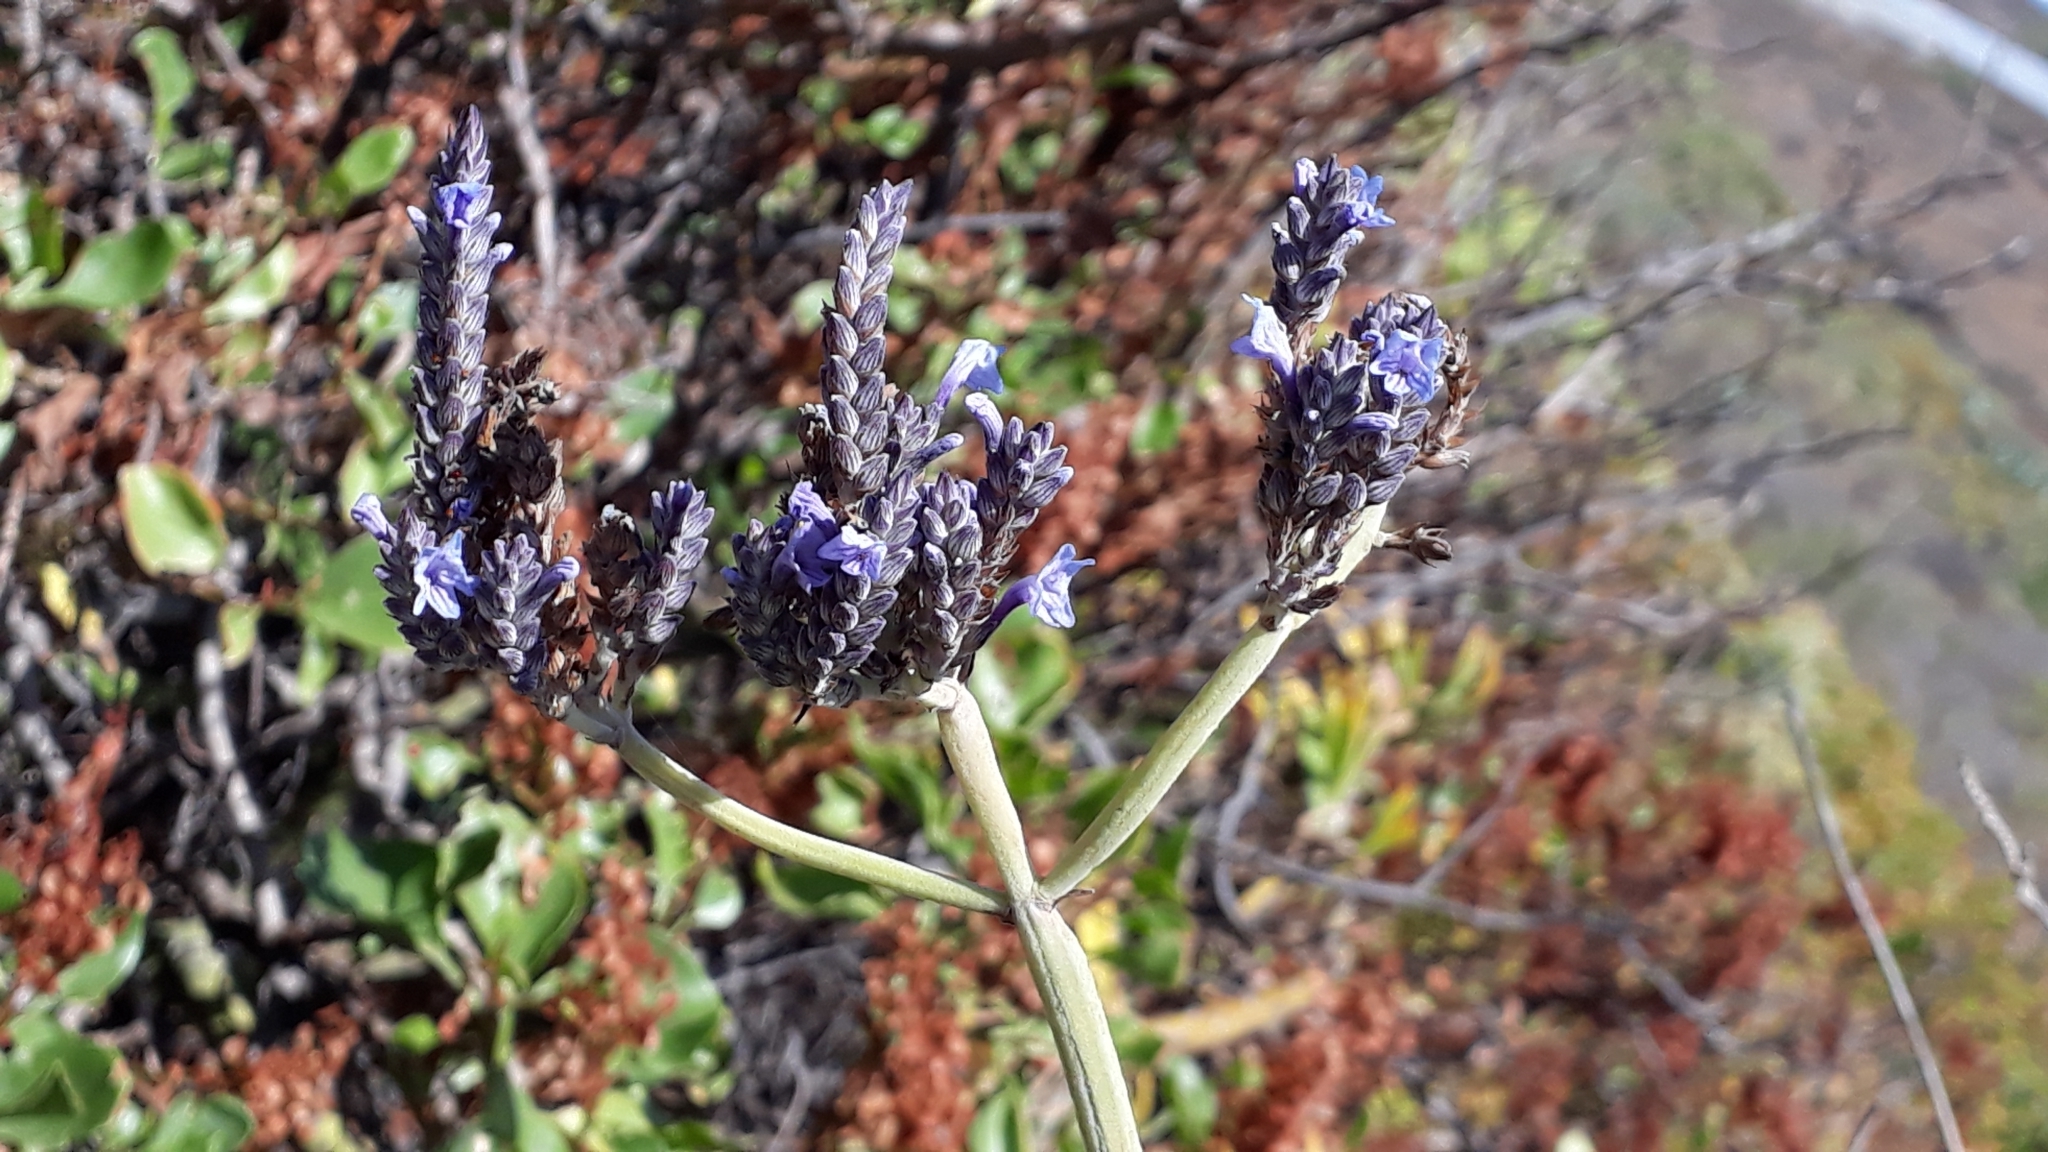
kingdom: Plantae
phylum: Tracheophyta
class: Magnoliopsida
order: Lamiales
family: Lamiaceae
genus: Lavandula
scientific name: Lavandula buchii
